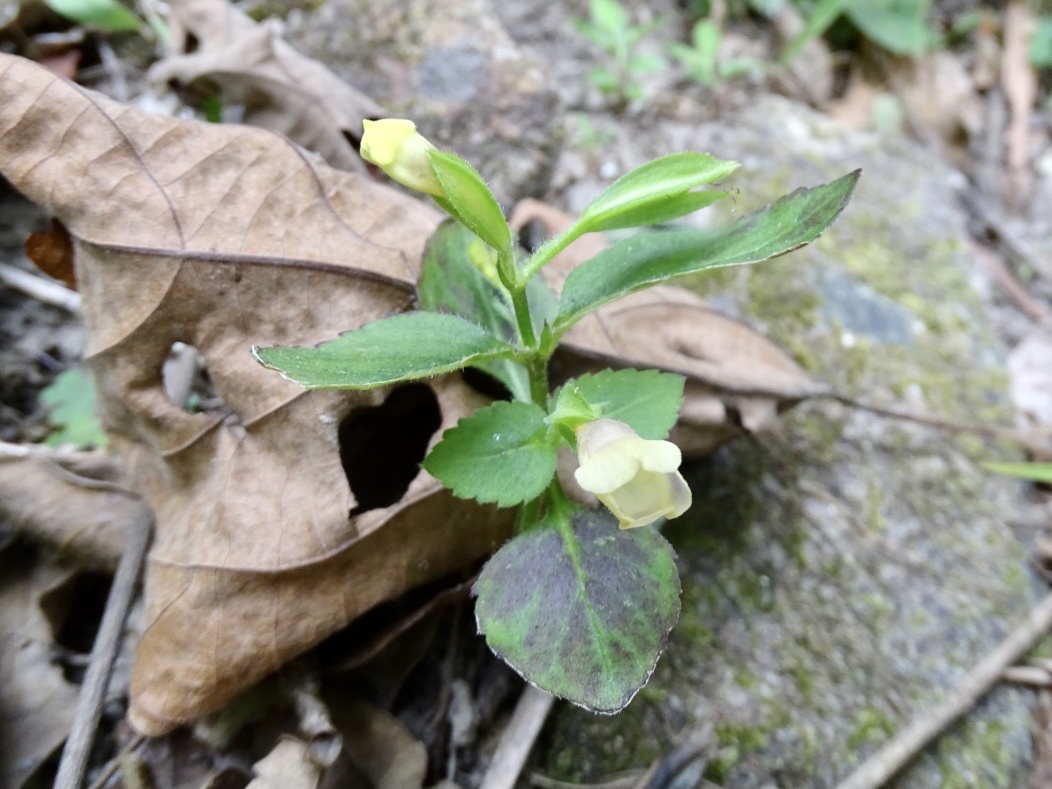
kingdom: Plantae
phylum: Tracheophyta
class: Magnoliopsida
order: Lamiales
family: Linderniaceae
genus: Torenia
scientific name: Torenia flava
